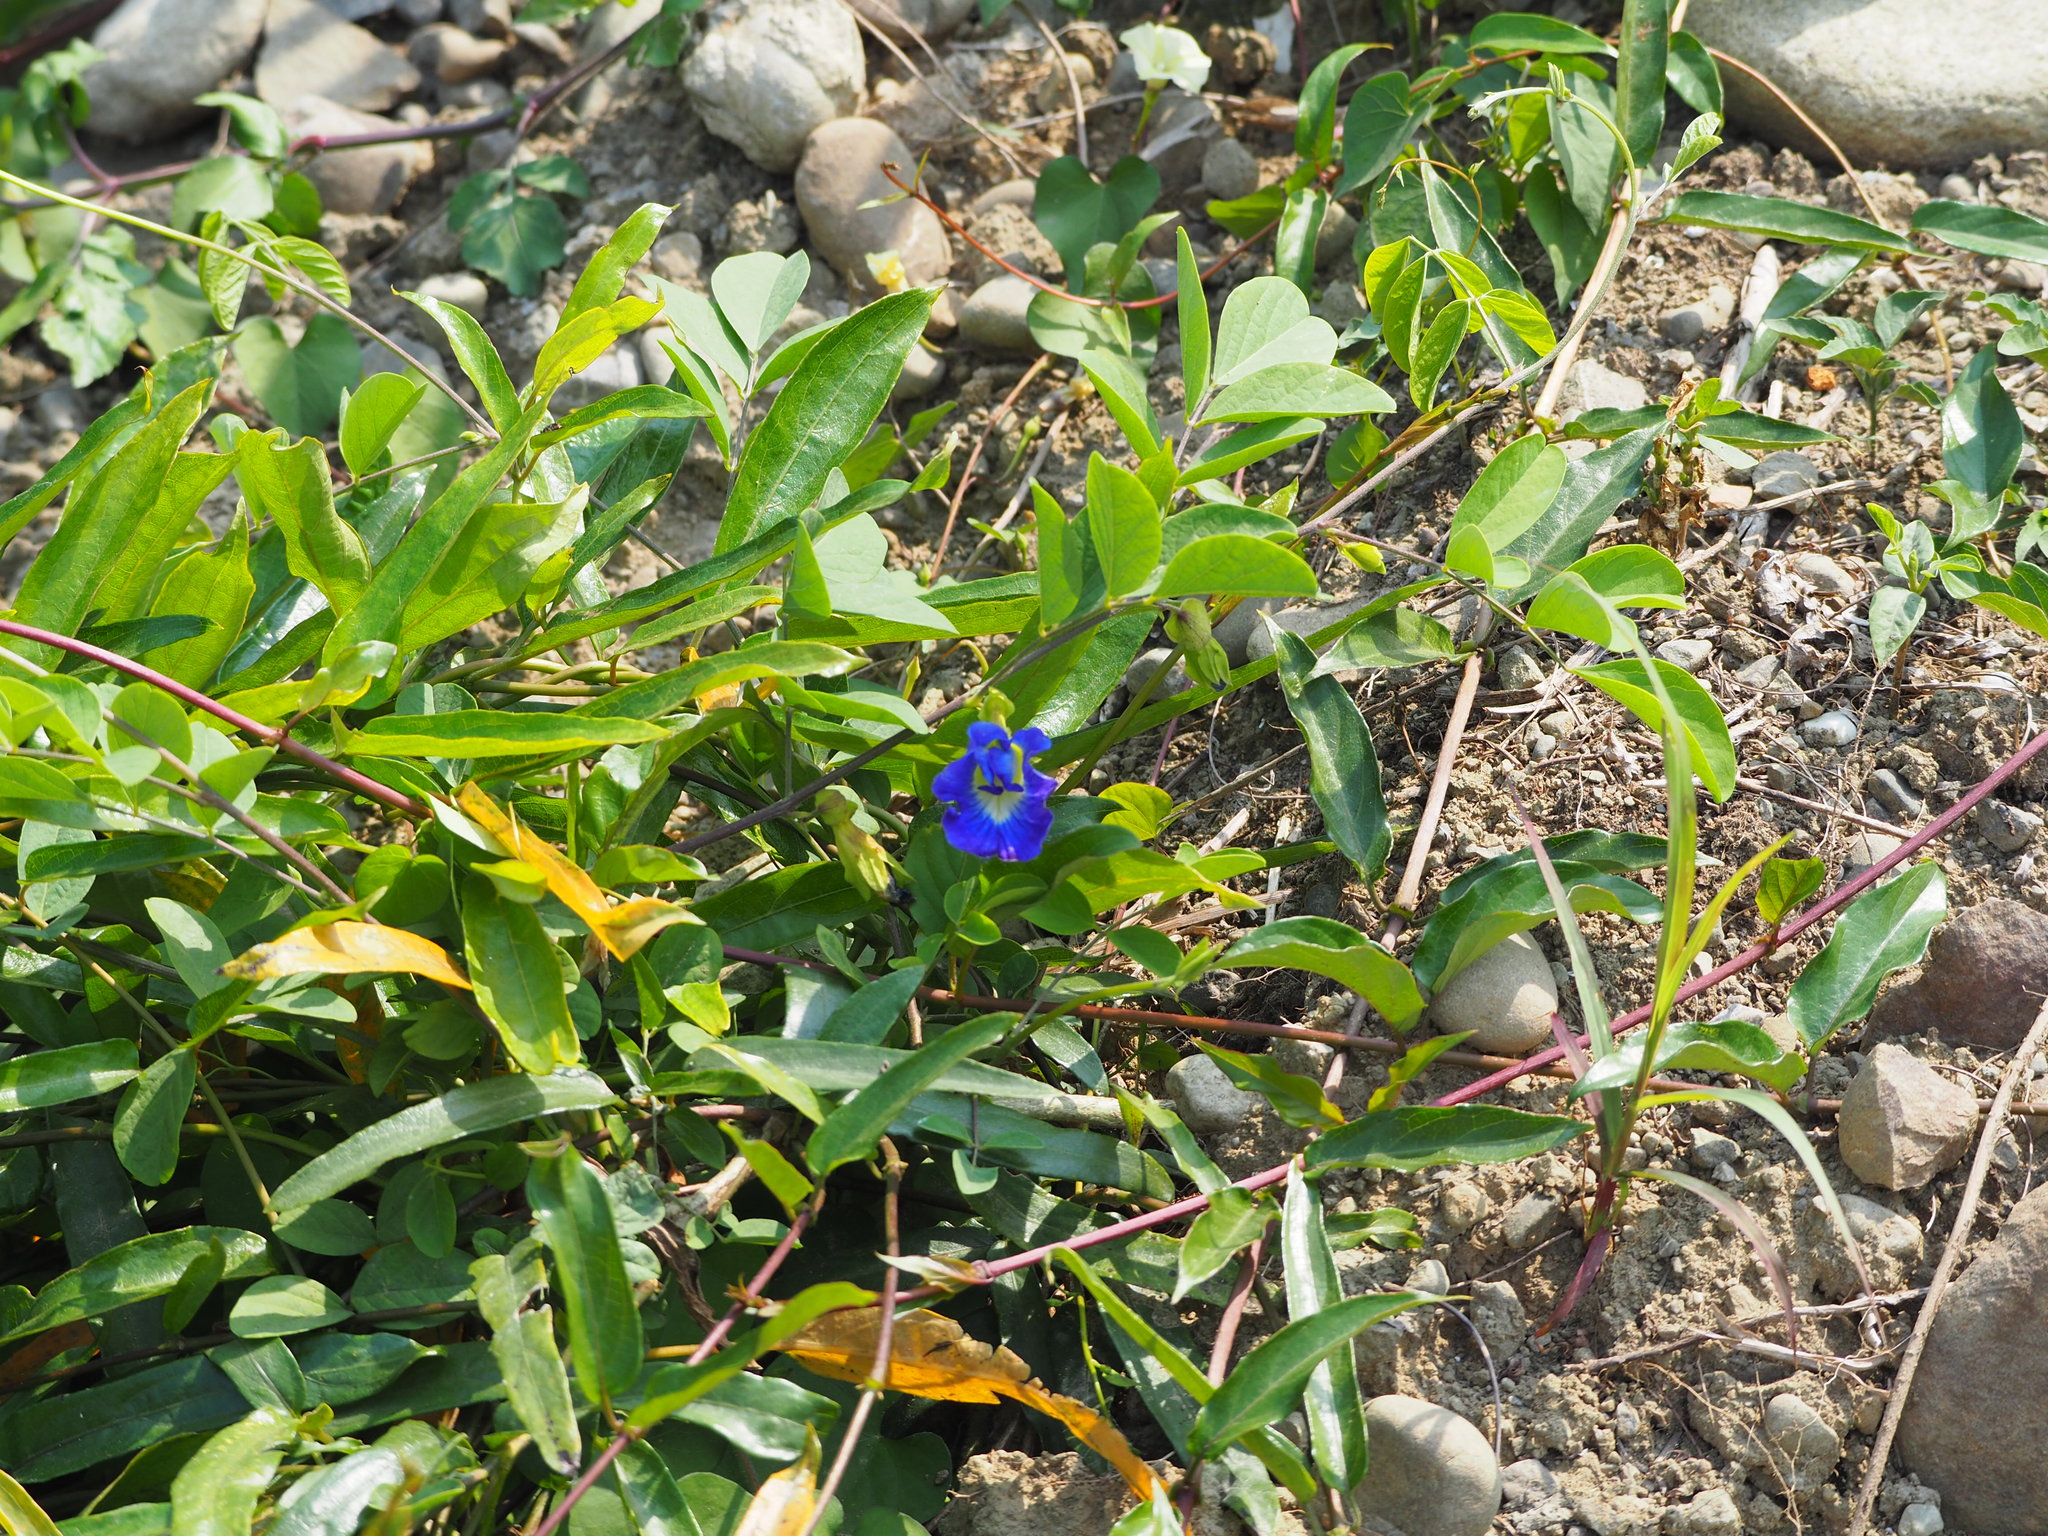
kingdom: Plantae
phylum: Tracheophyta
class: Magnoliopsida
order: Fabales
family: Fabaceae
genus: Clitoria
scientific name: Clitoria ternatea
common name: Asian pigeonwings
